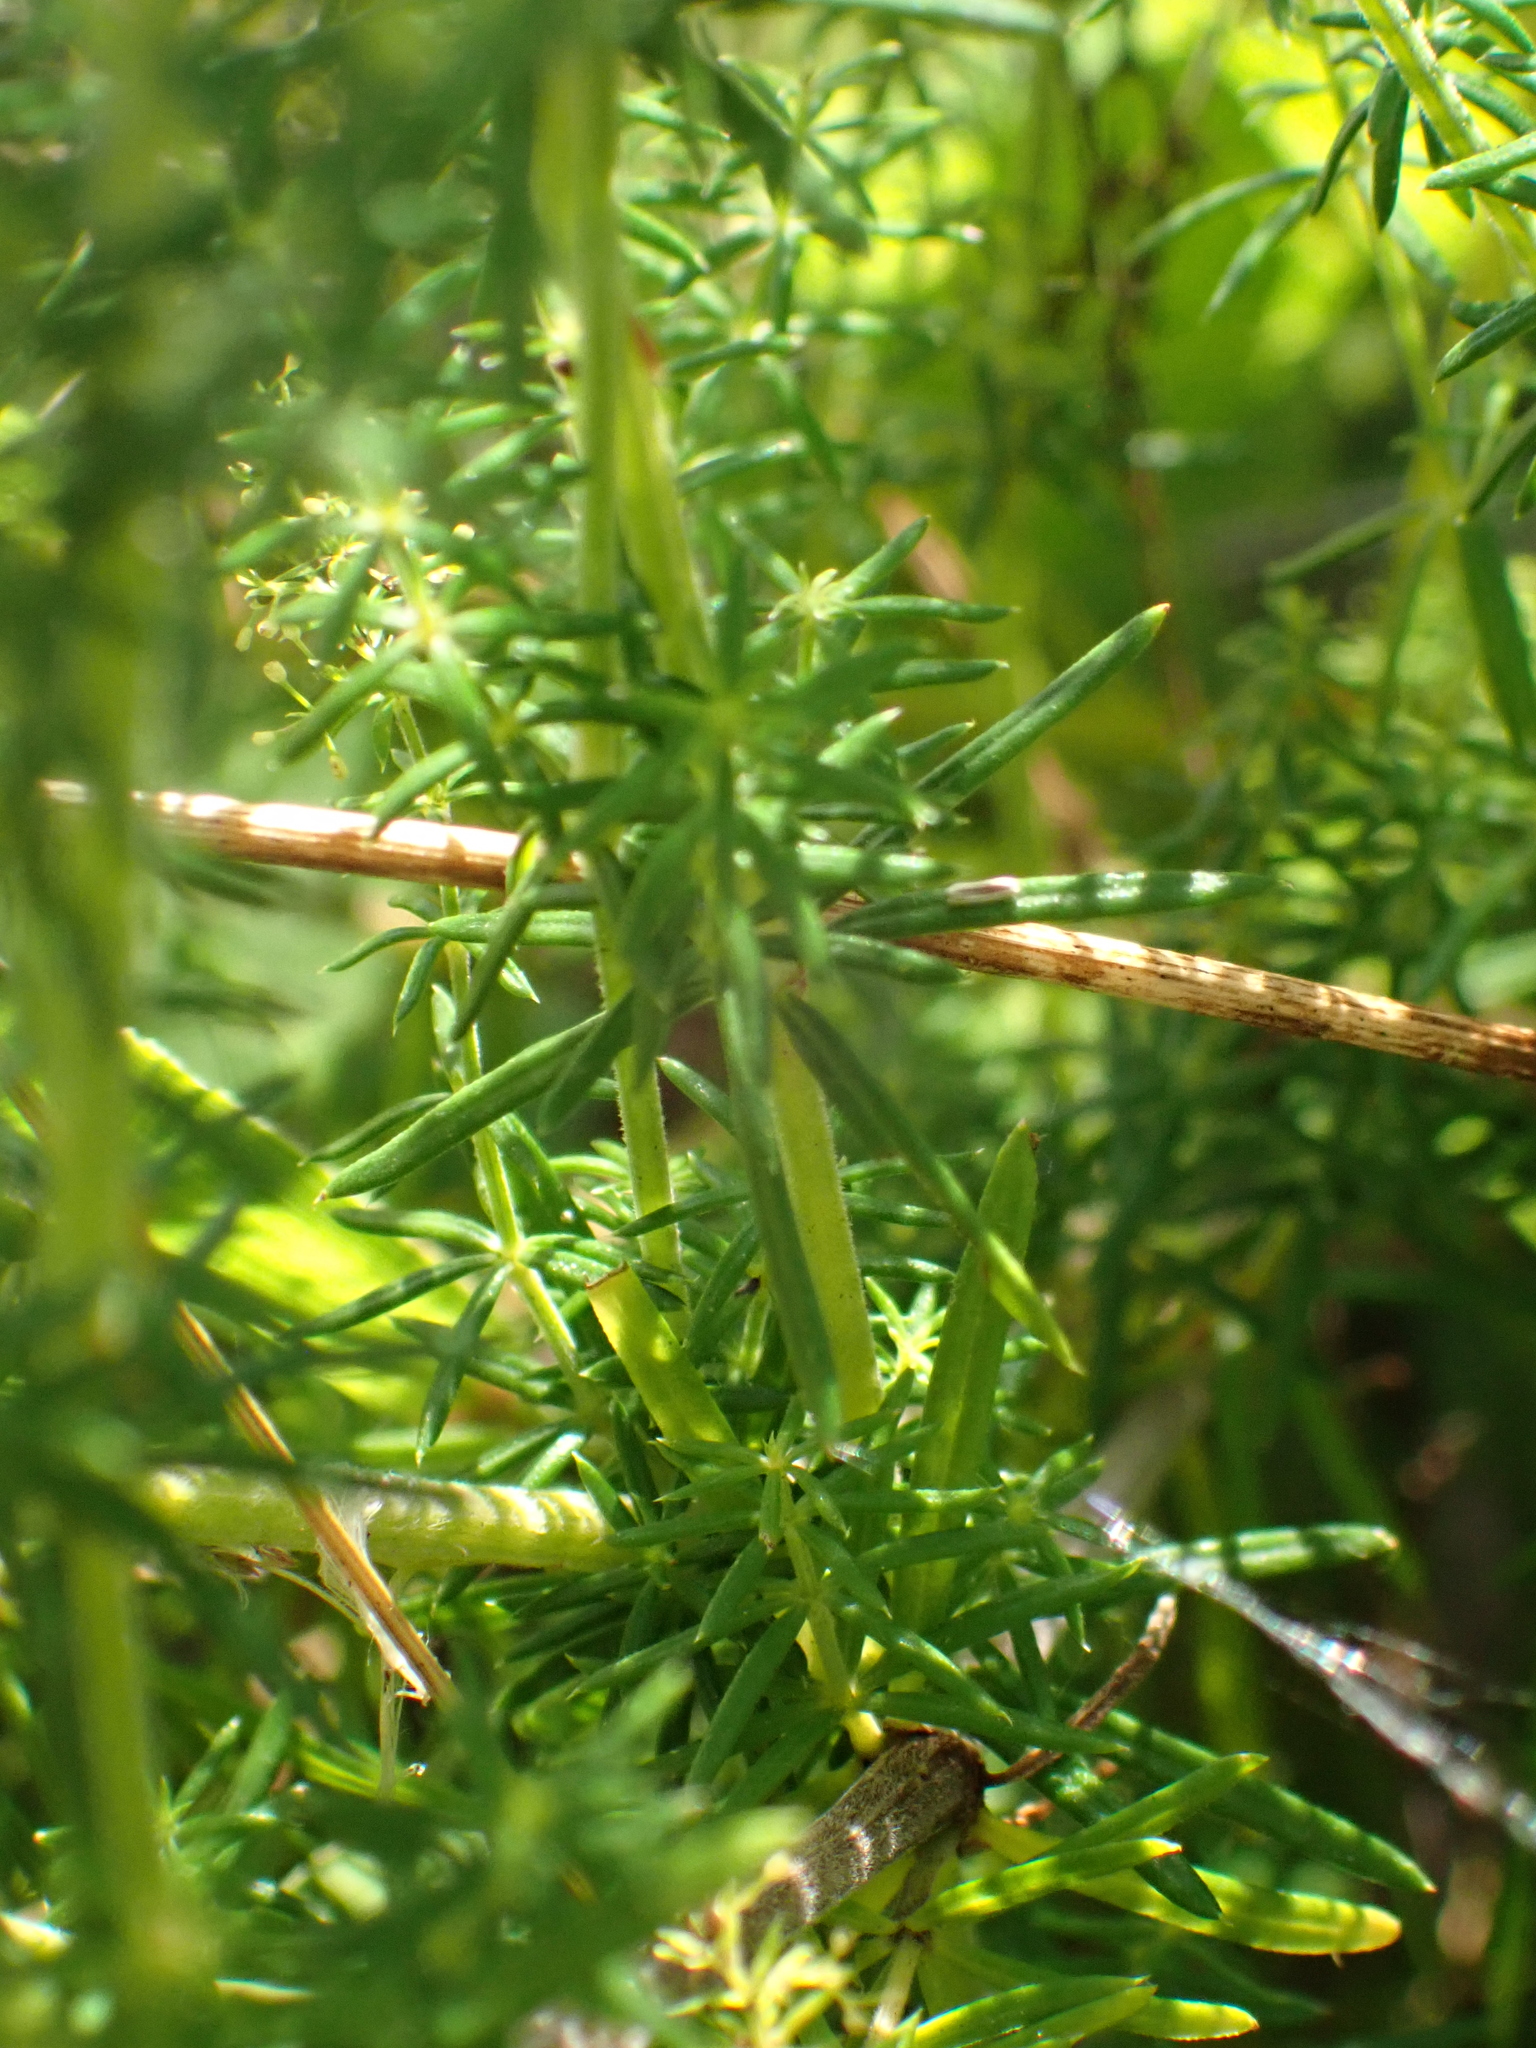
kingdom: Plantae
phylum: Tracheophyta
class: Magnoliopsida
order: Gentianales
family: Rubiaceae
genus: Galium
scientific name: Galium verum
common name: Lady's bedstraw
